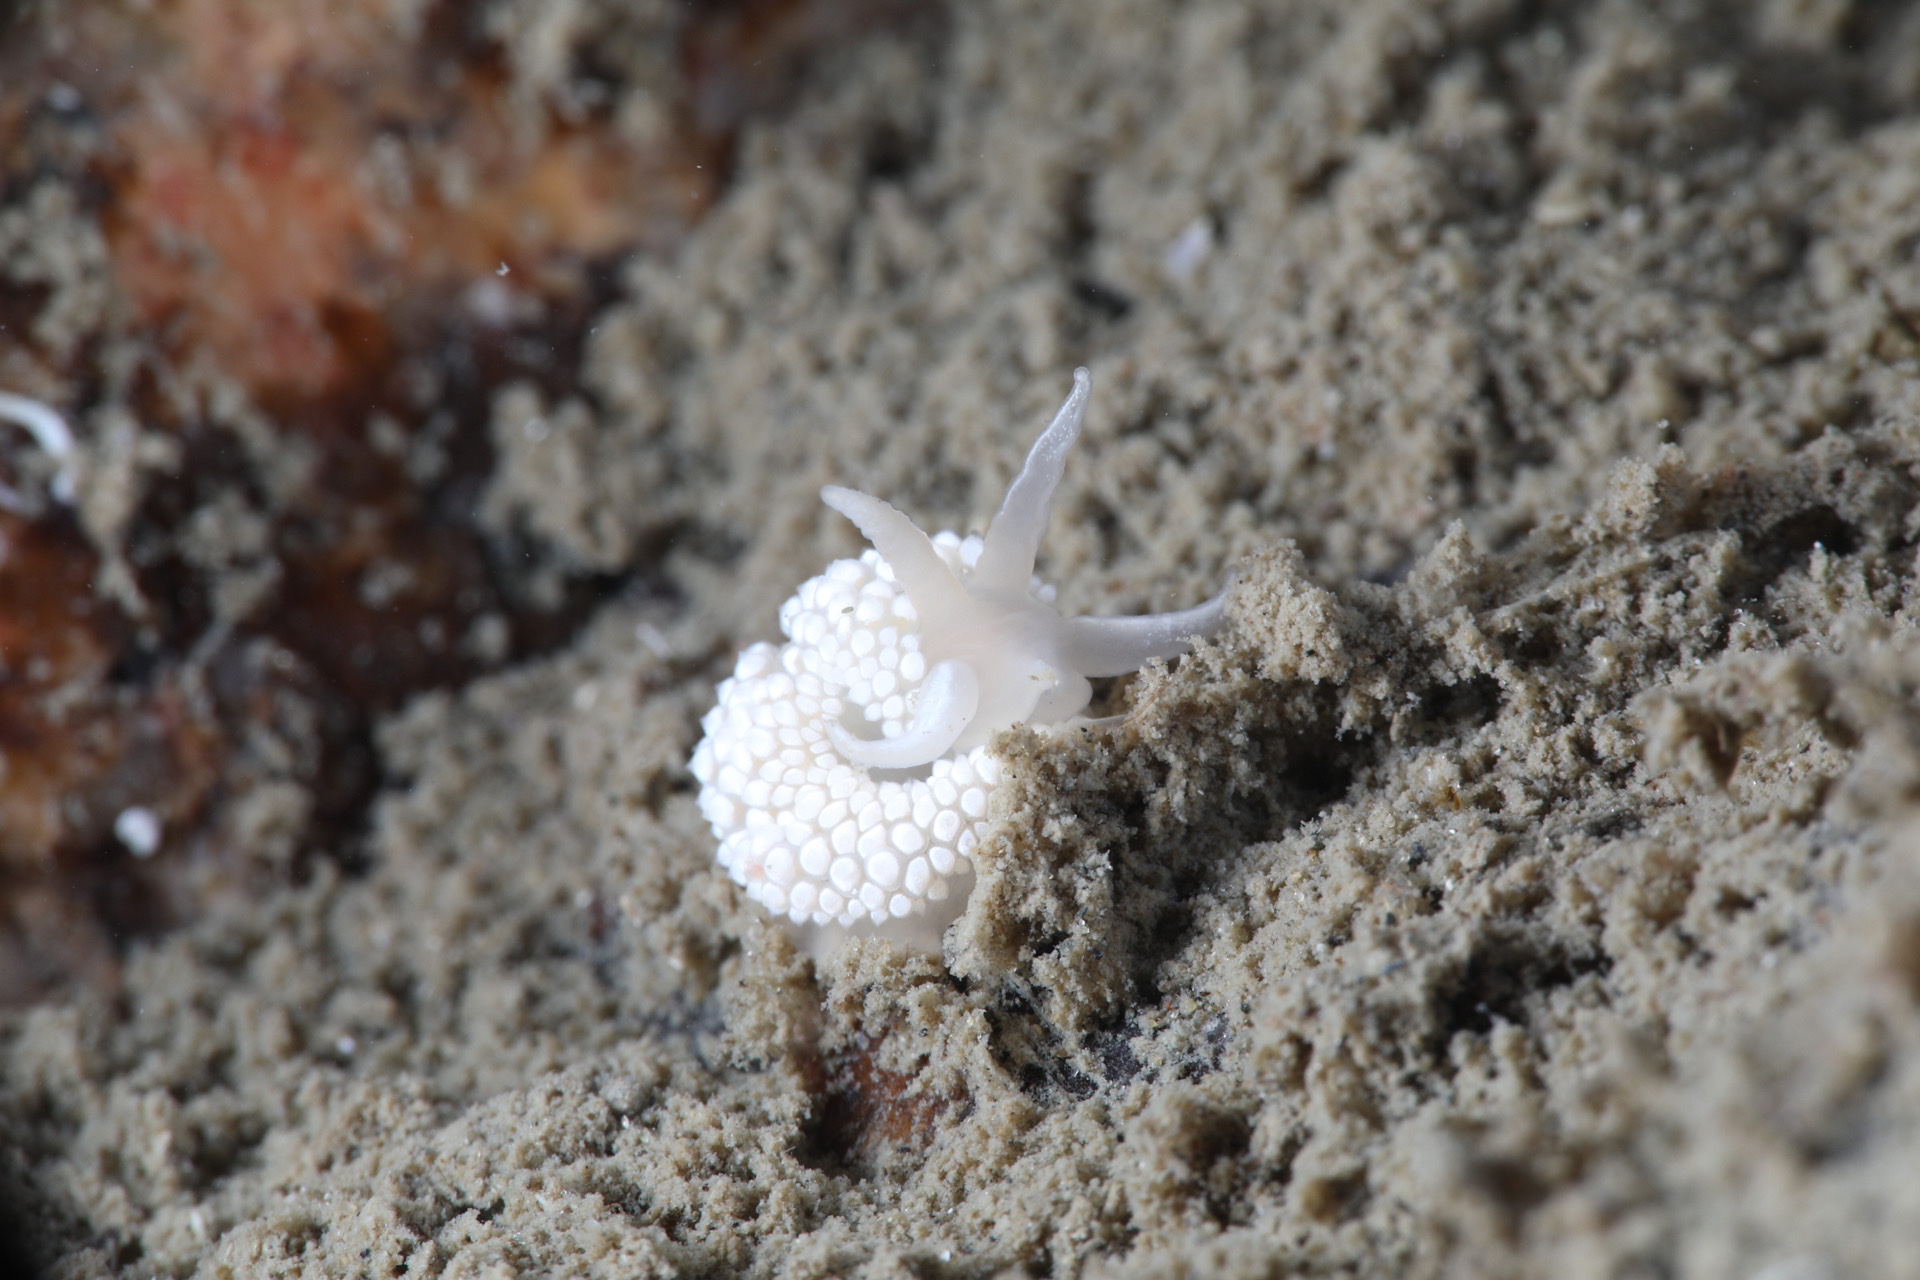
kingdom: Animalia
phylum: Mollusca
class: Gastropoda
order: Nudibranchia
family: Coryphellidae
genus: Coryphella
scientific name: Coryphella verrucosa
